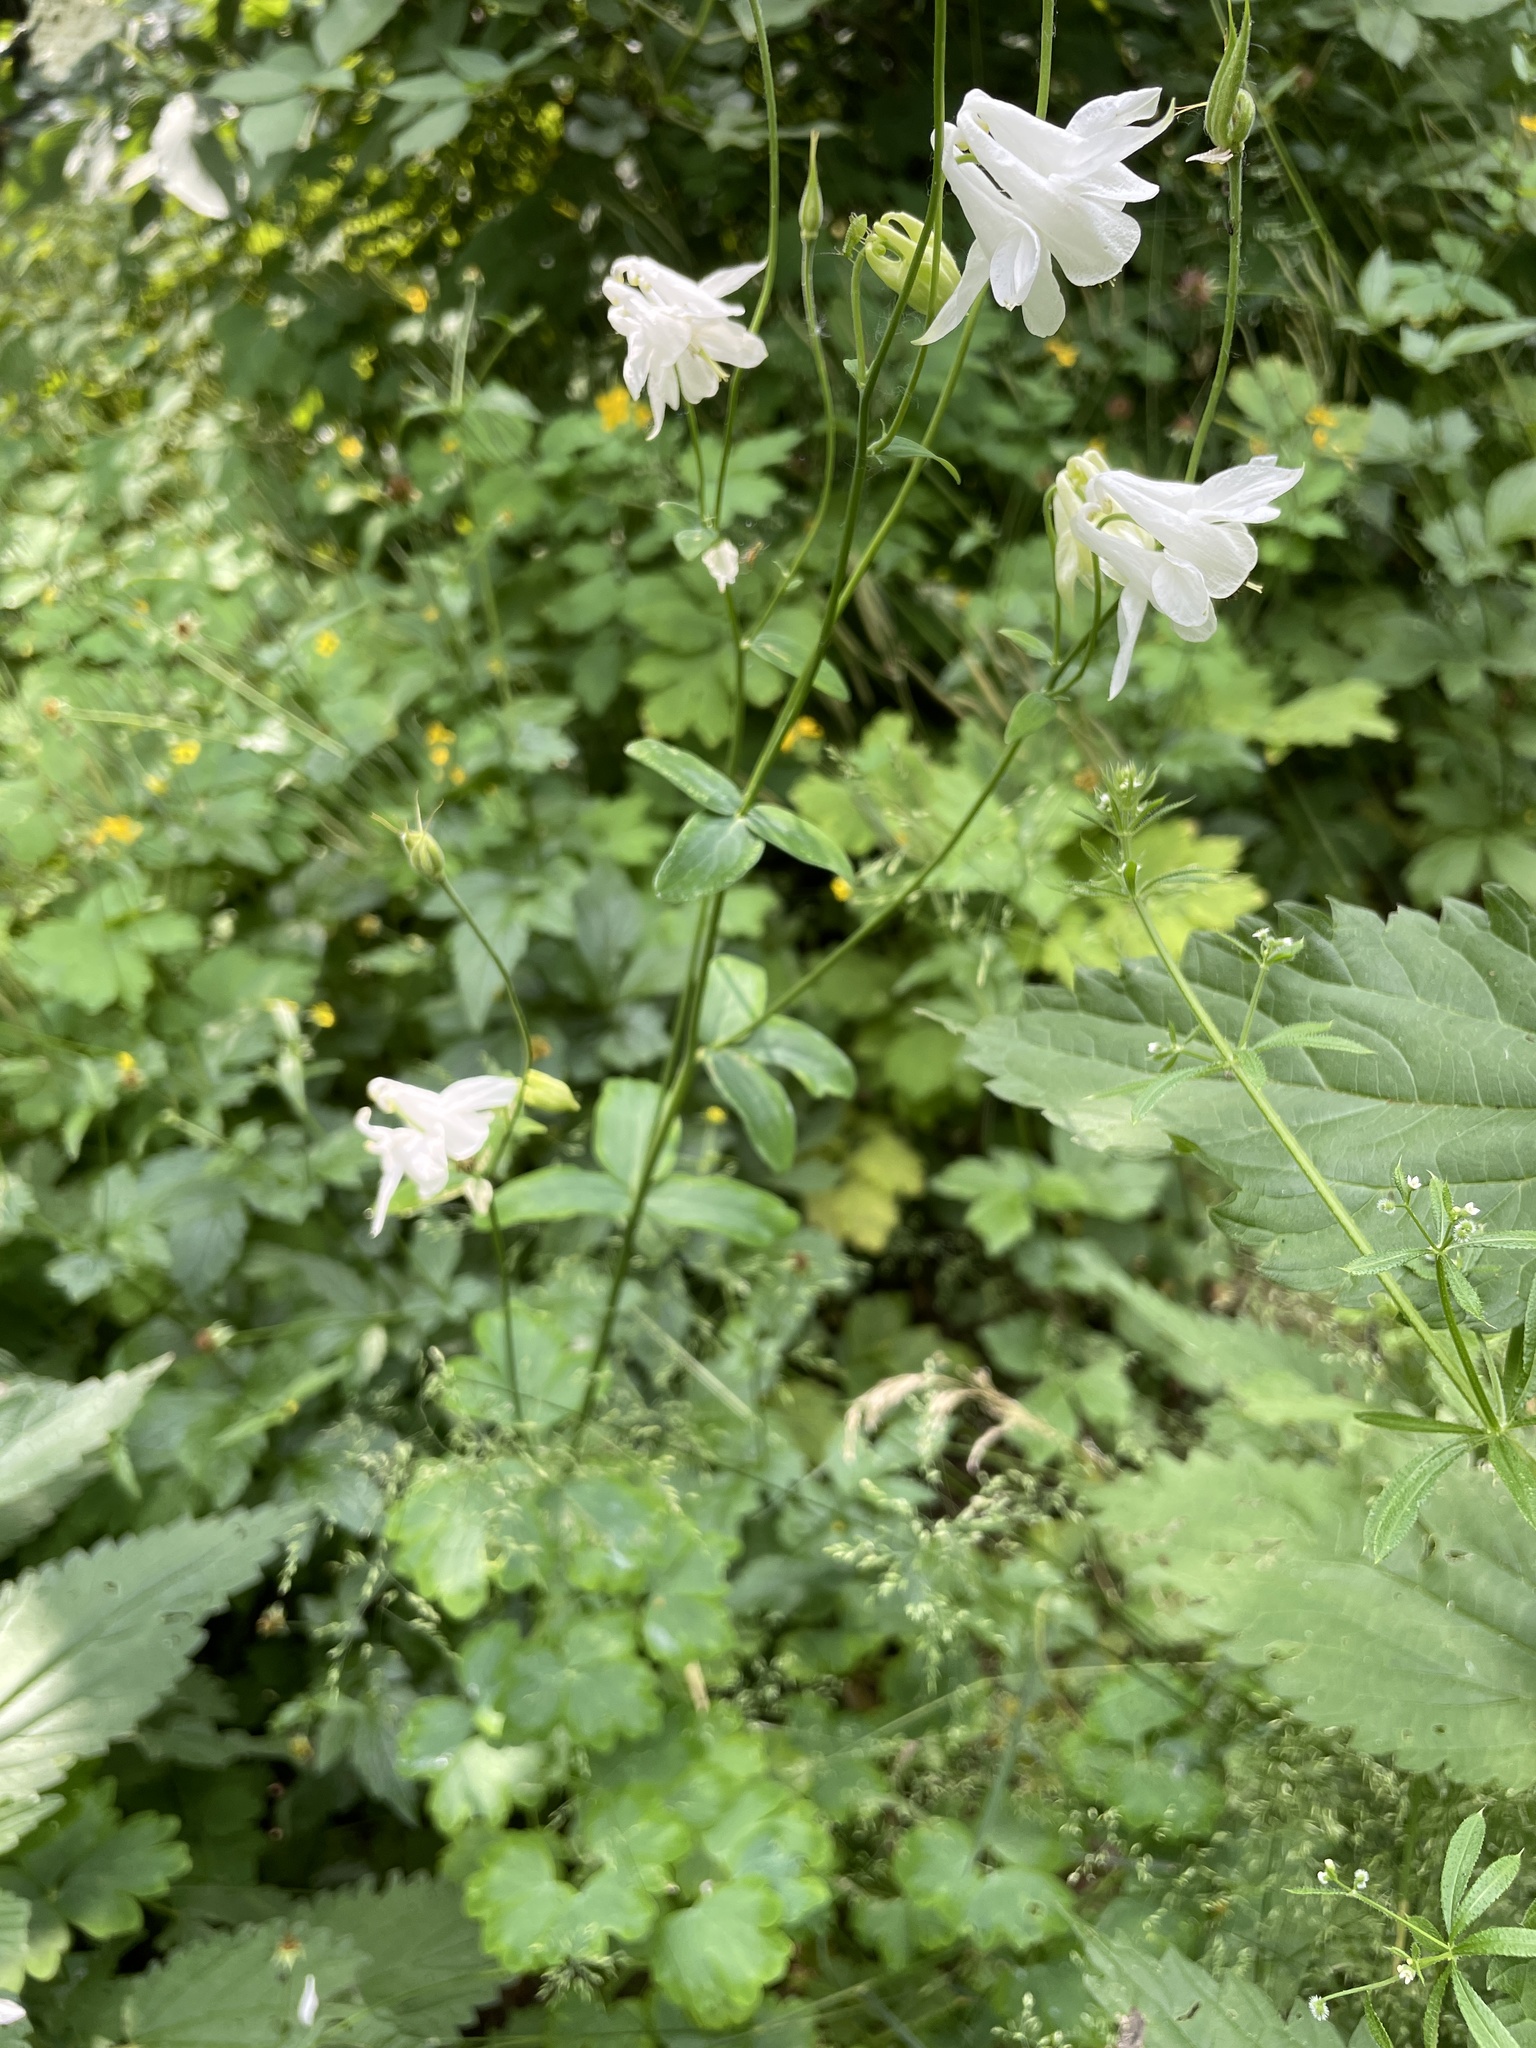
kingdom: Plantae
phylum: Tracheophyta
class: Magnoliopsida
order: Ranunculales
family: Ranunculaceae
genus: Aquilegia
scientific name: Aquilegia vulgaris
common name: Columbine
